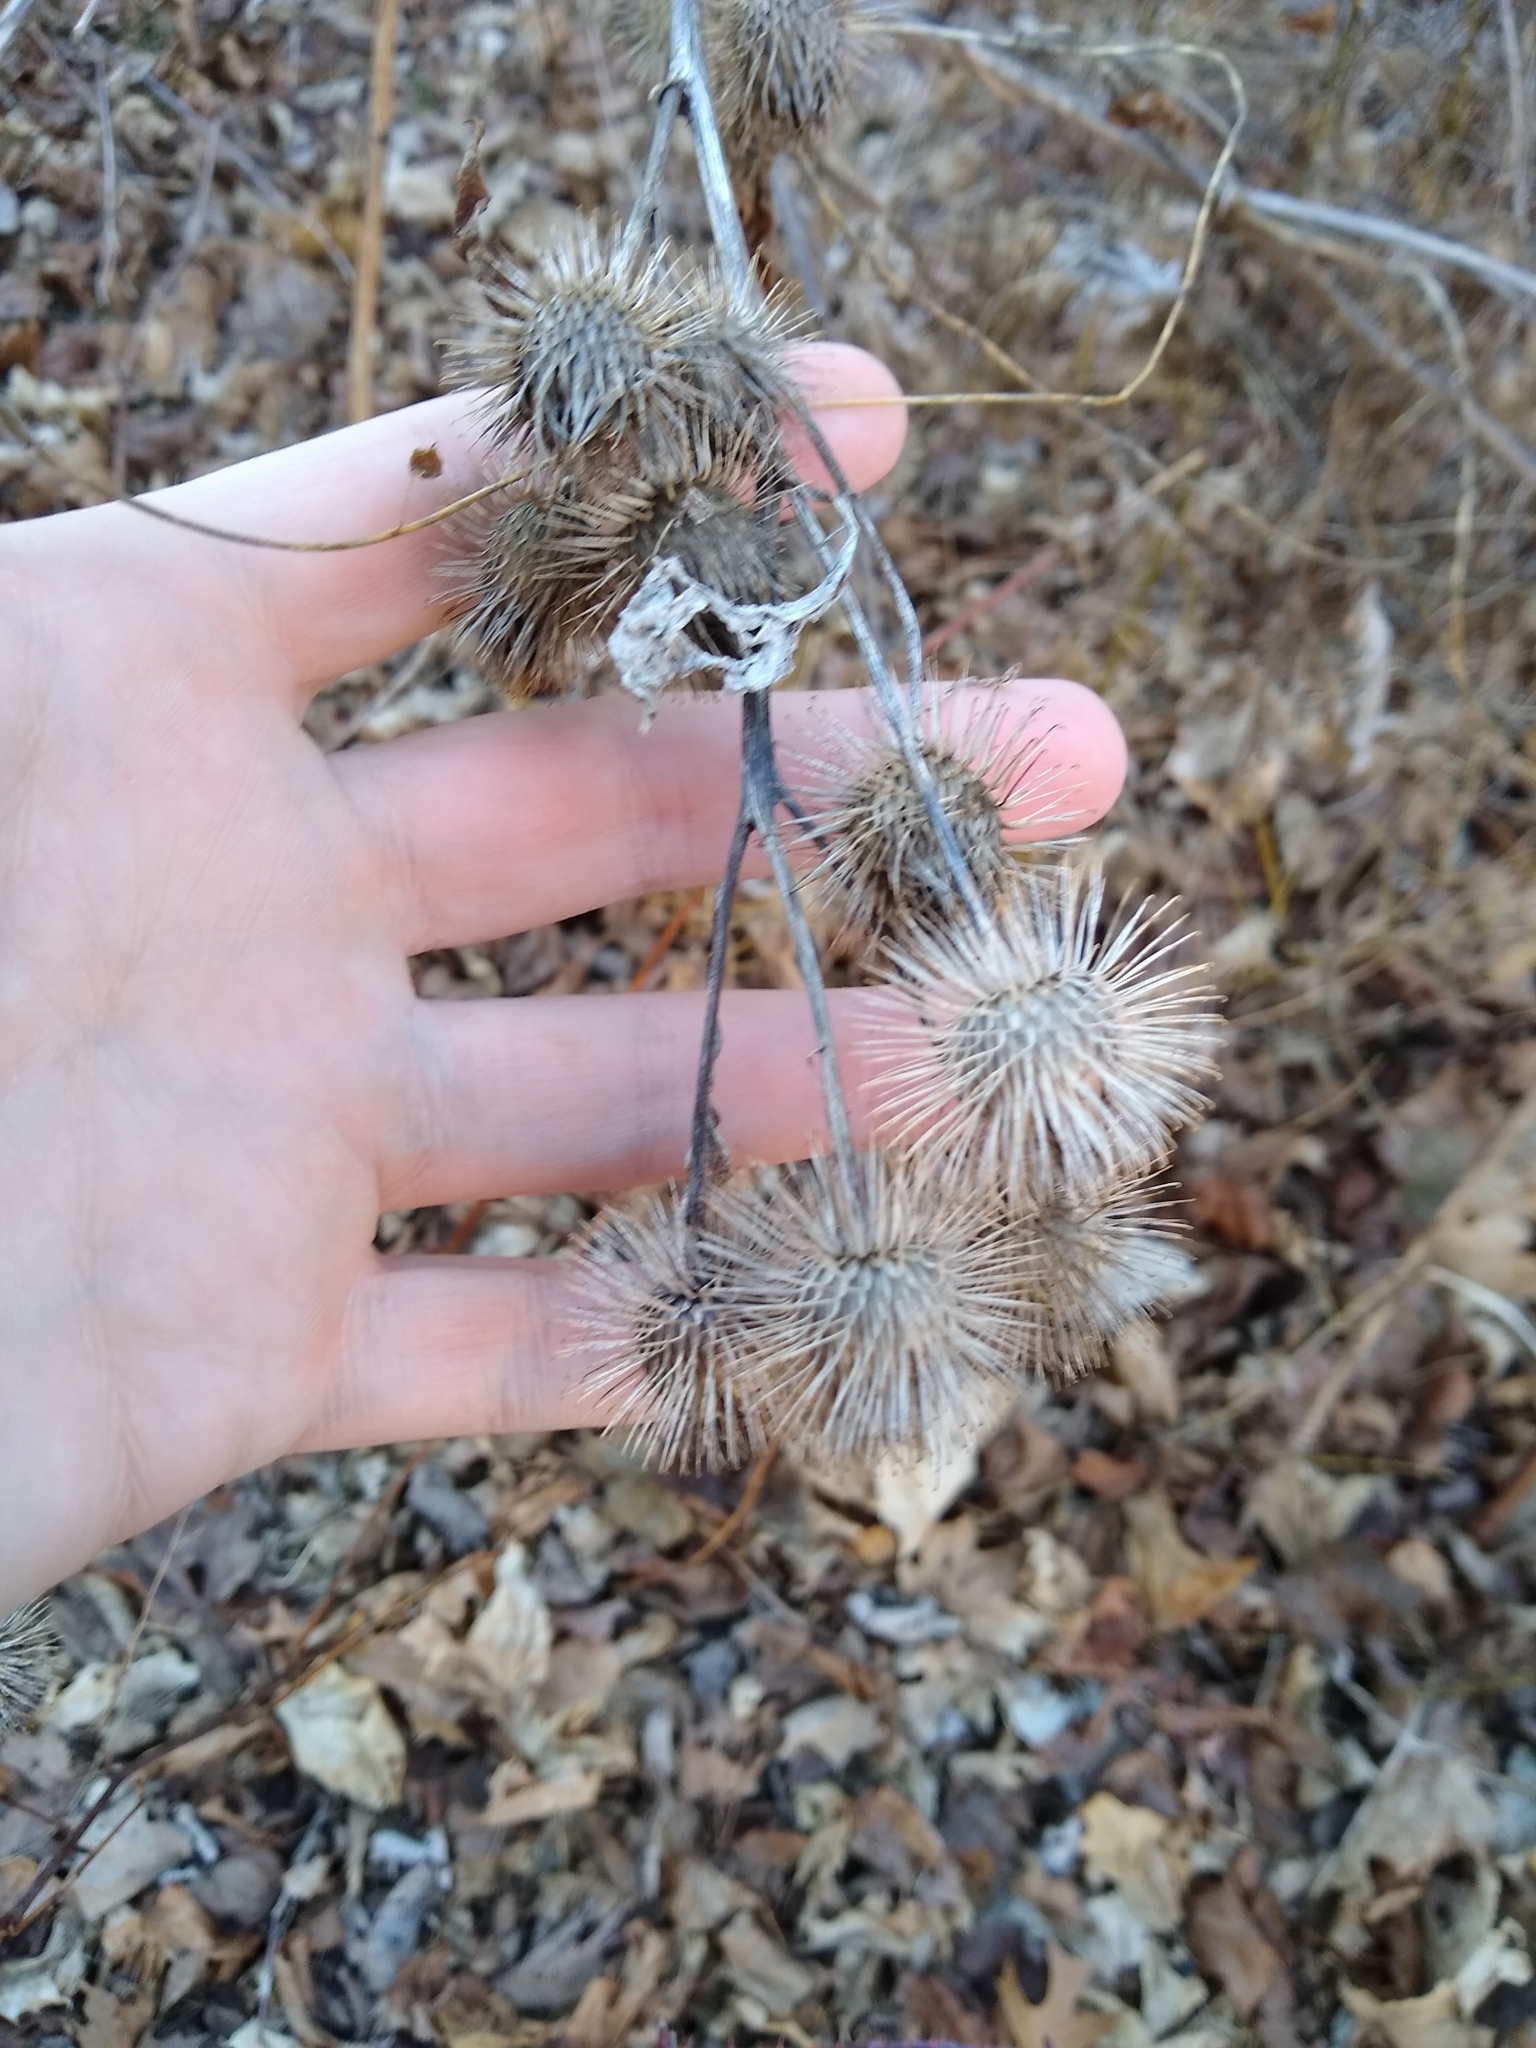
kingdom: Plantae
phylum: Tracheophyta
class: Magnoliopsida
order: Asterales
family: Asteraceae
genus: Arctium
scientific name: Arctium lappa
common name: Greater burdock
